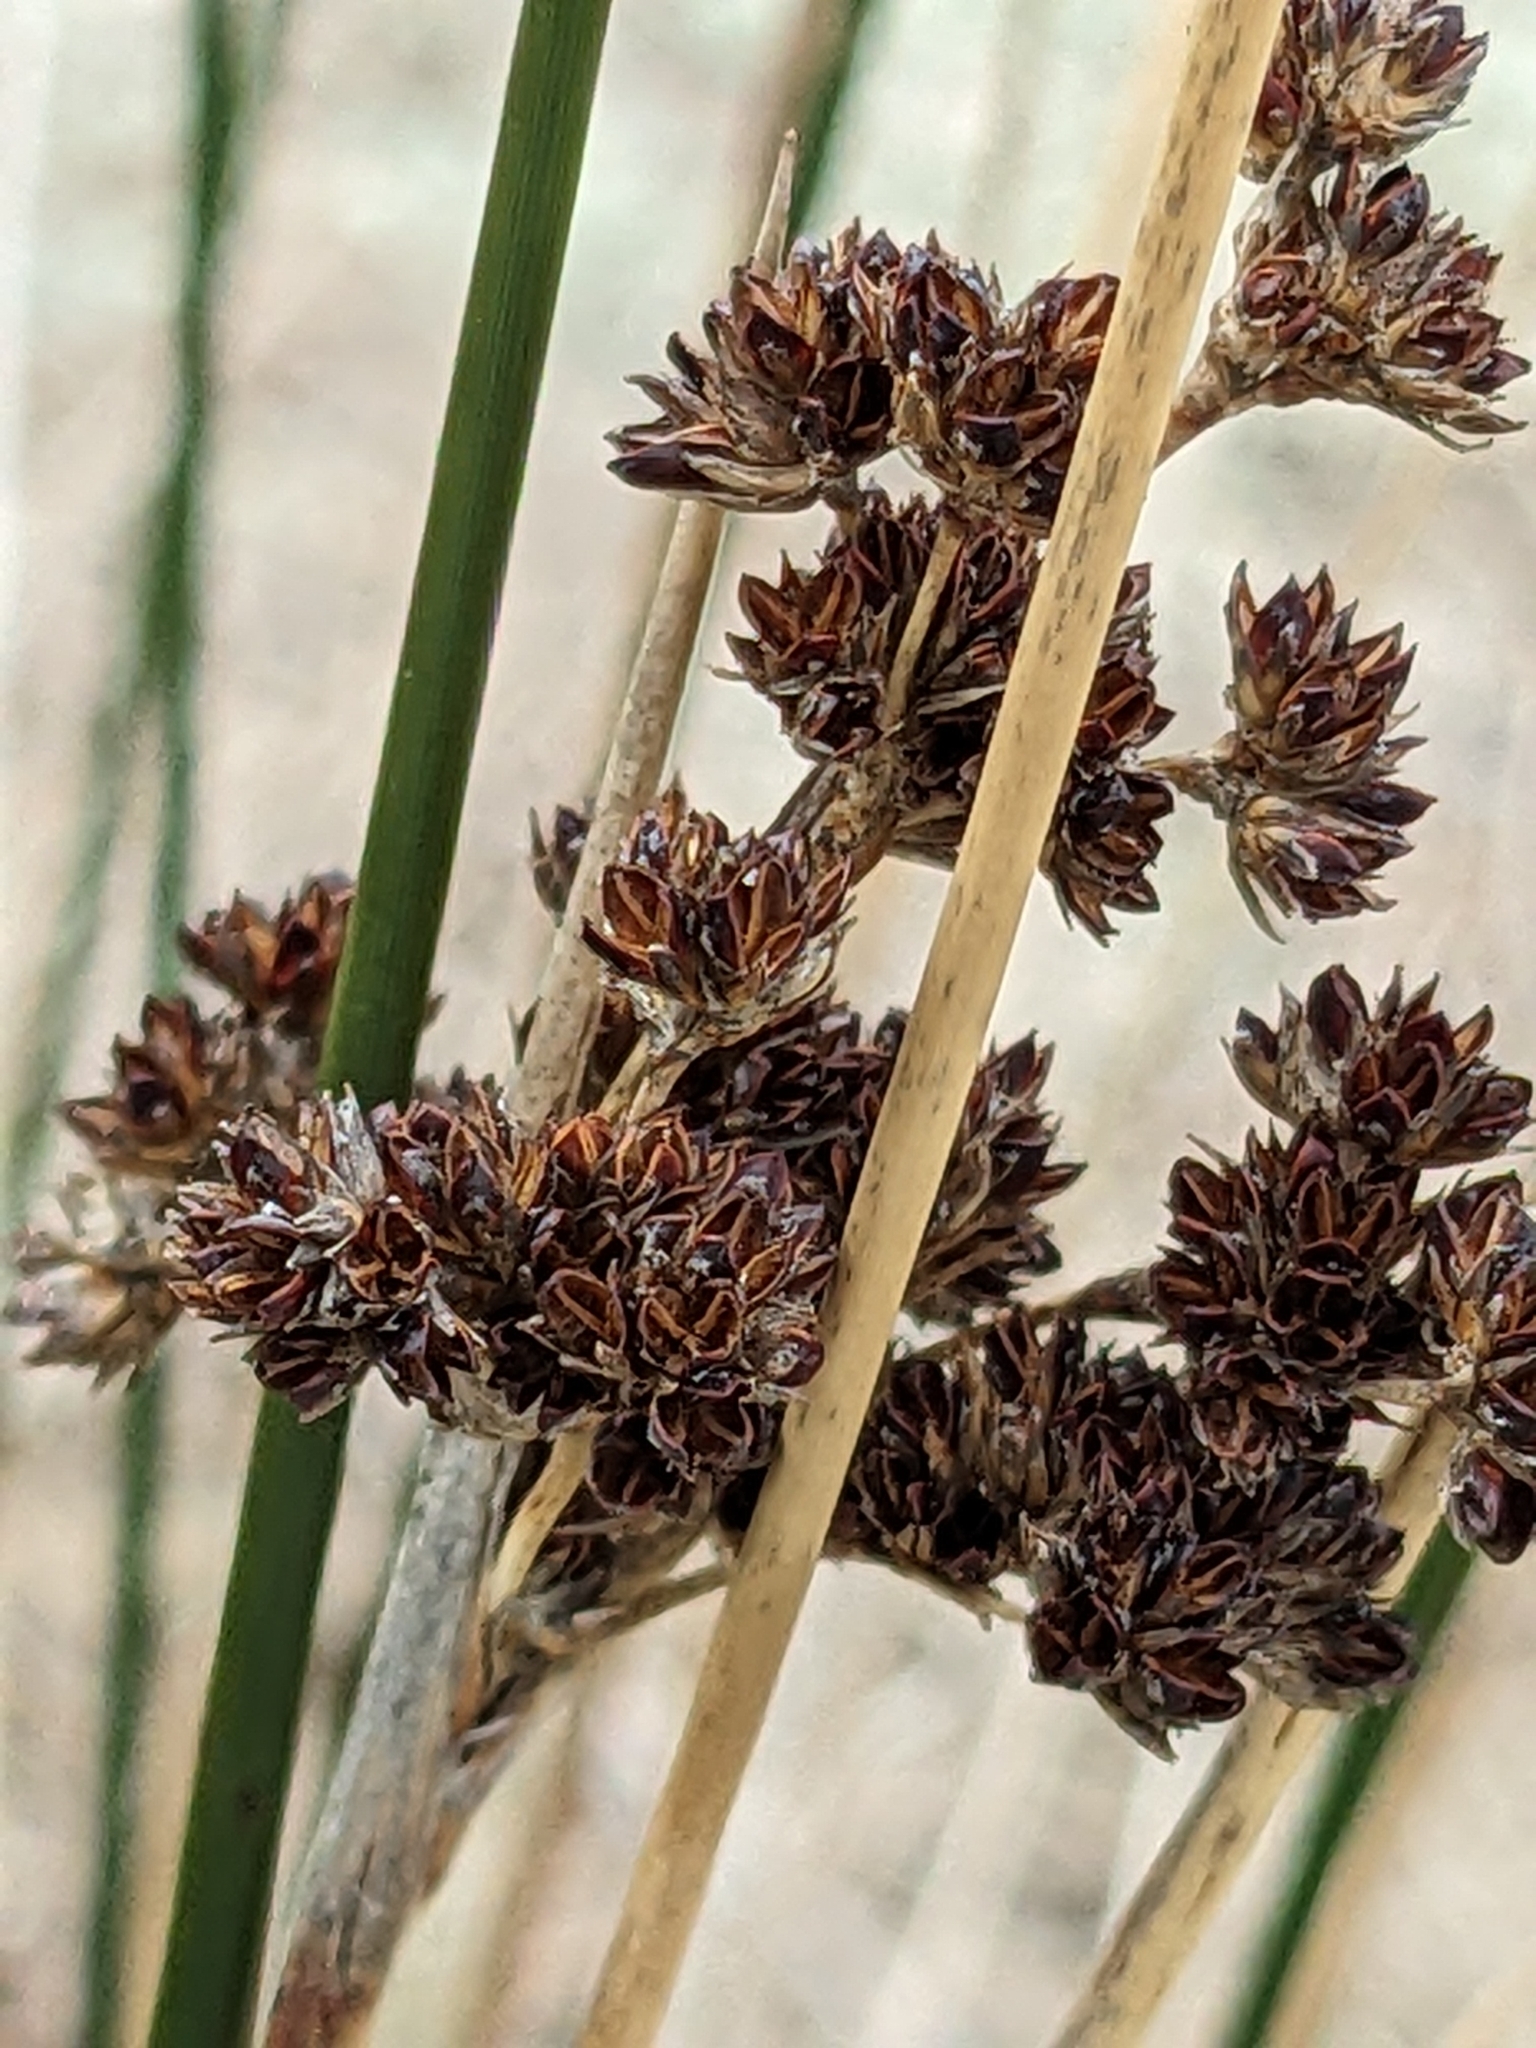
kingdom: Plantae
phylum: Tracheophyta
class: Liliopsida
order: Poales
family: Juncaceae
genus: Juncus
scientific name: Juncus kraussii
